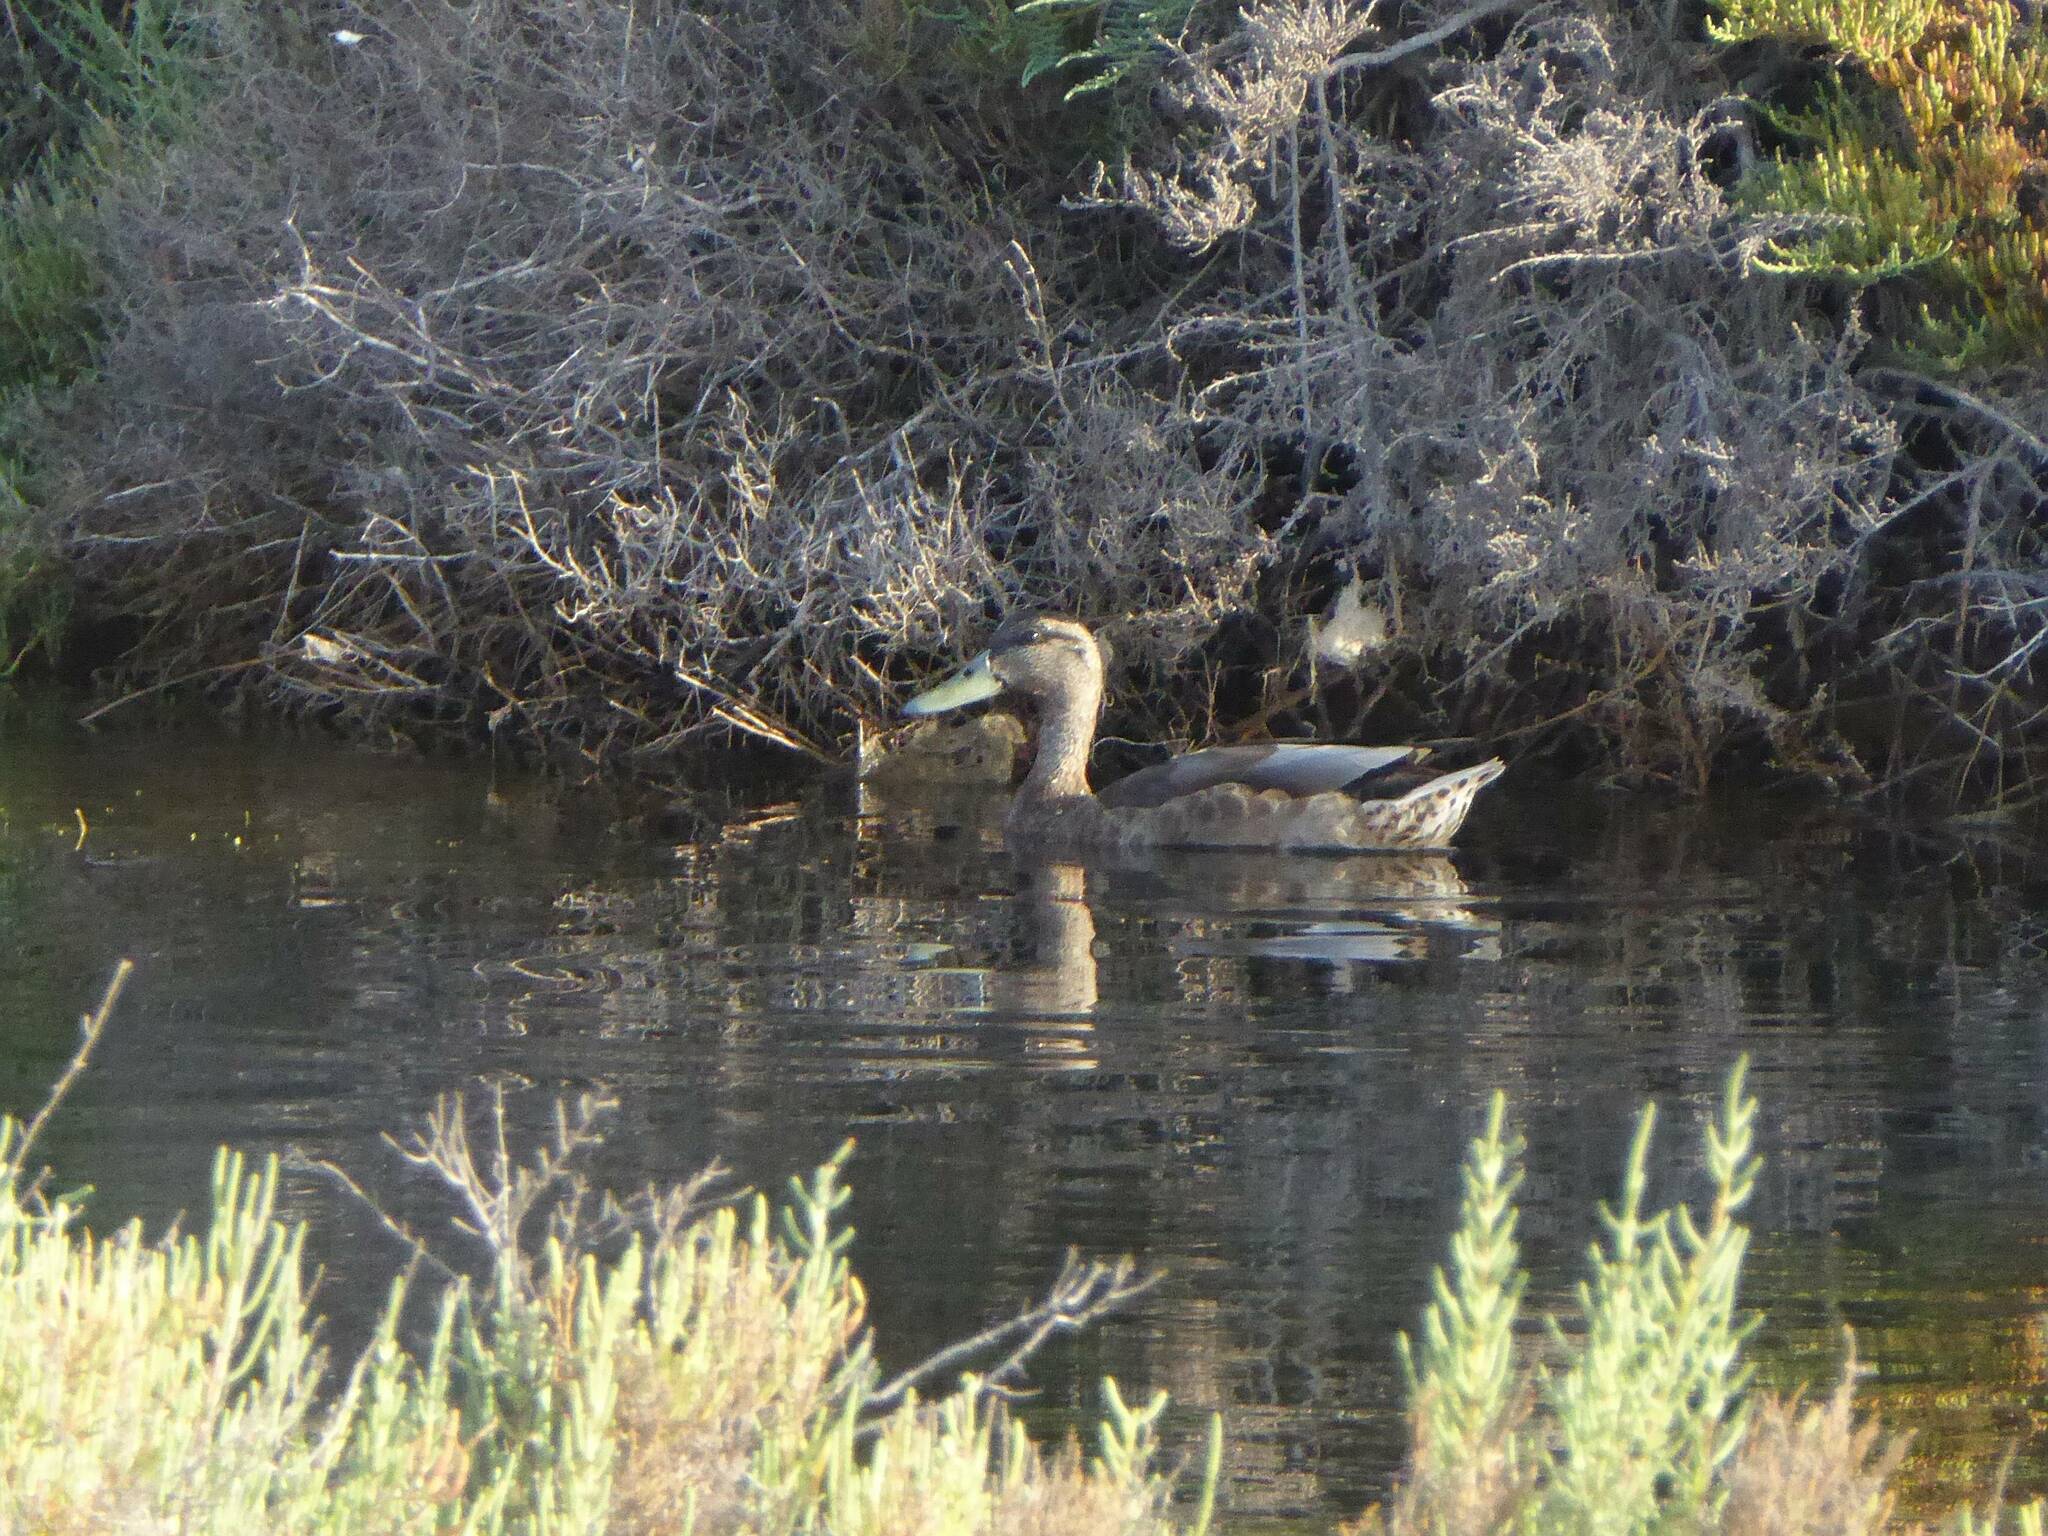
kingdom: Animalia
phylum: Chordata
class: Aves
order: Anseriformes
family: Anatidae
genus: Anas
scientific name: Anas platyrhynchos
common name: Mallard
